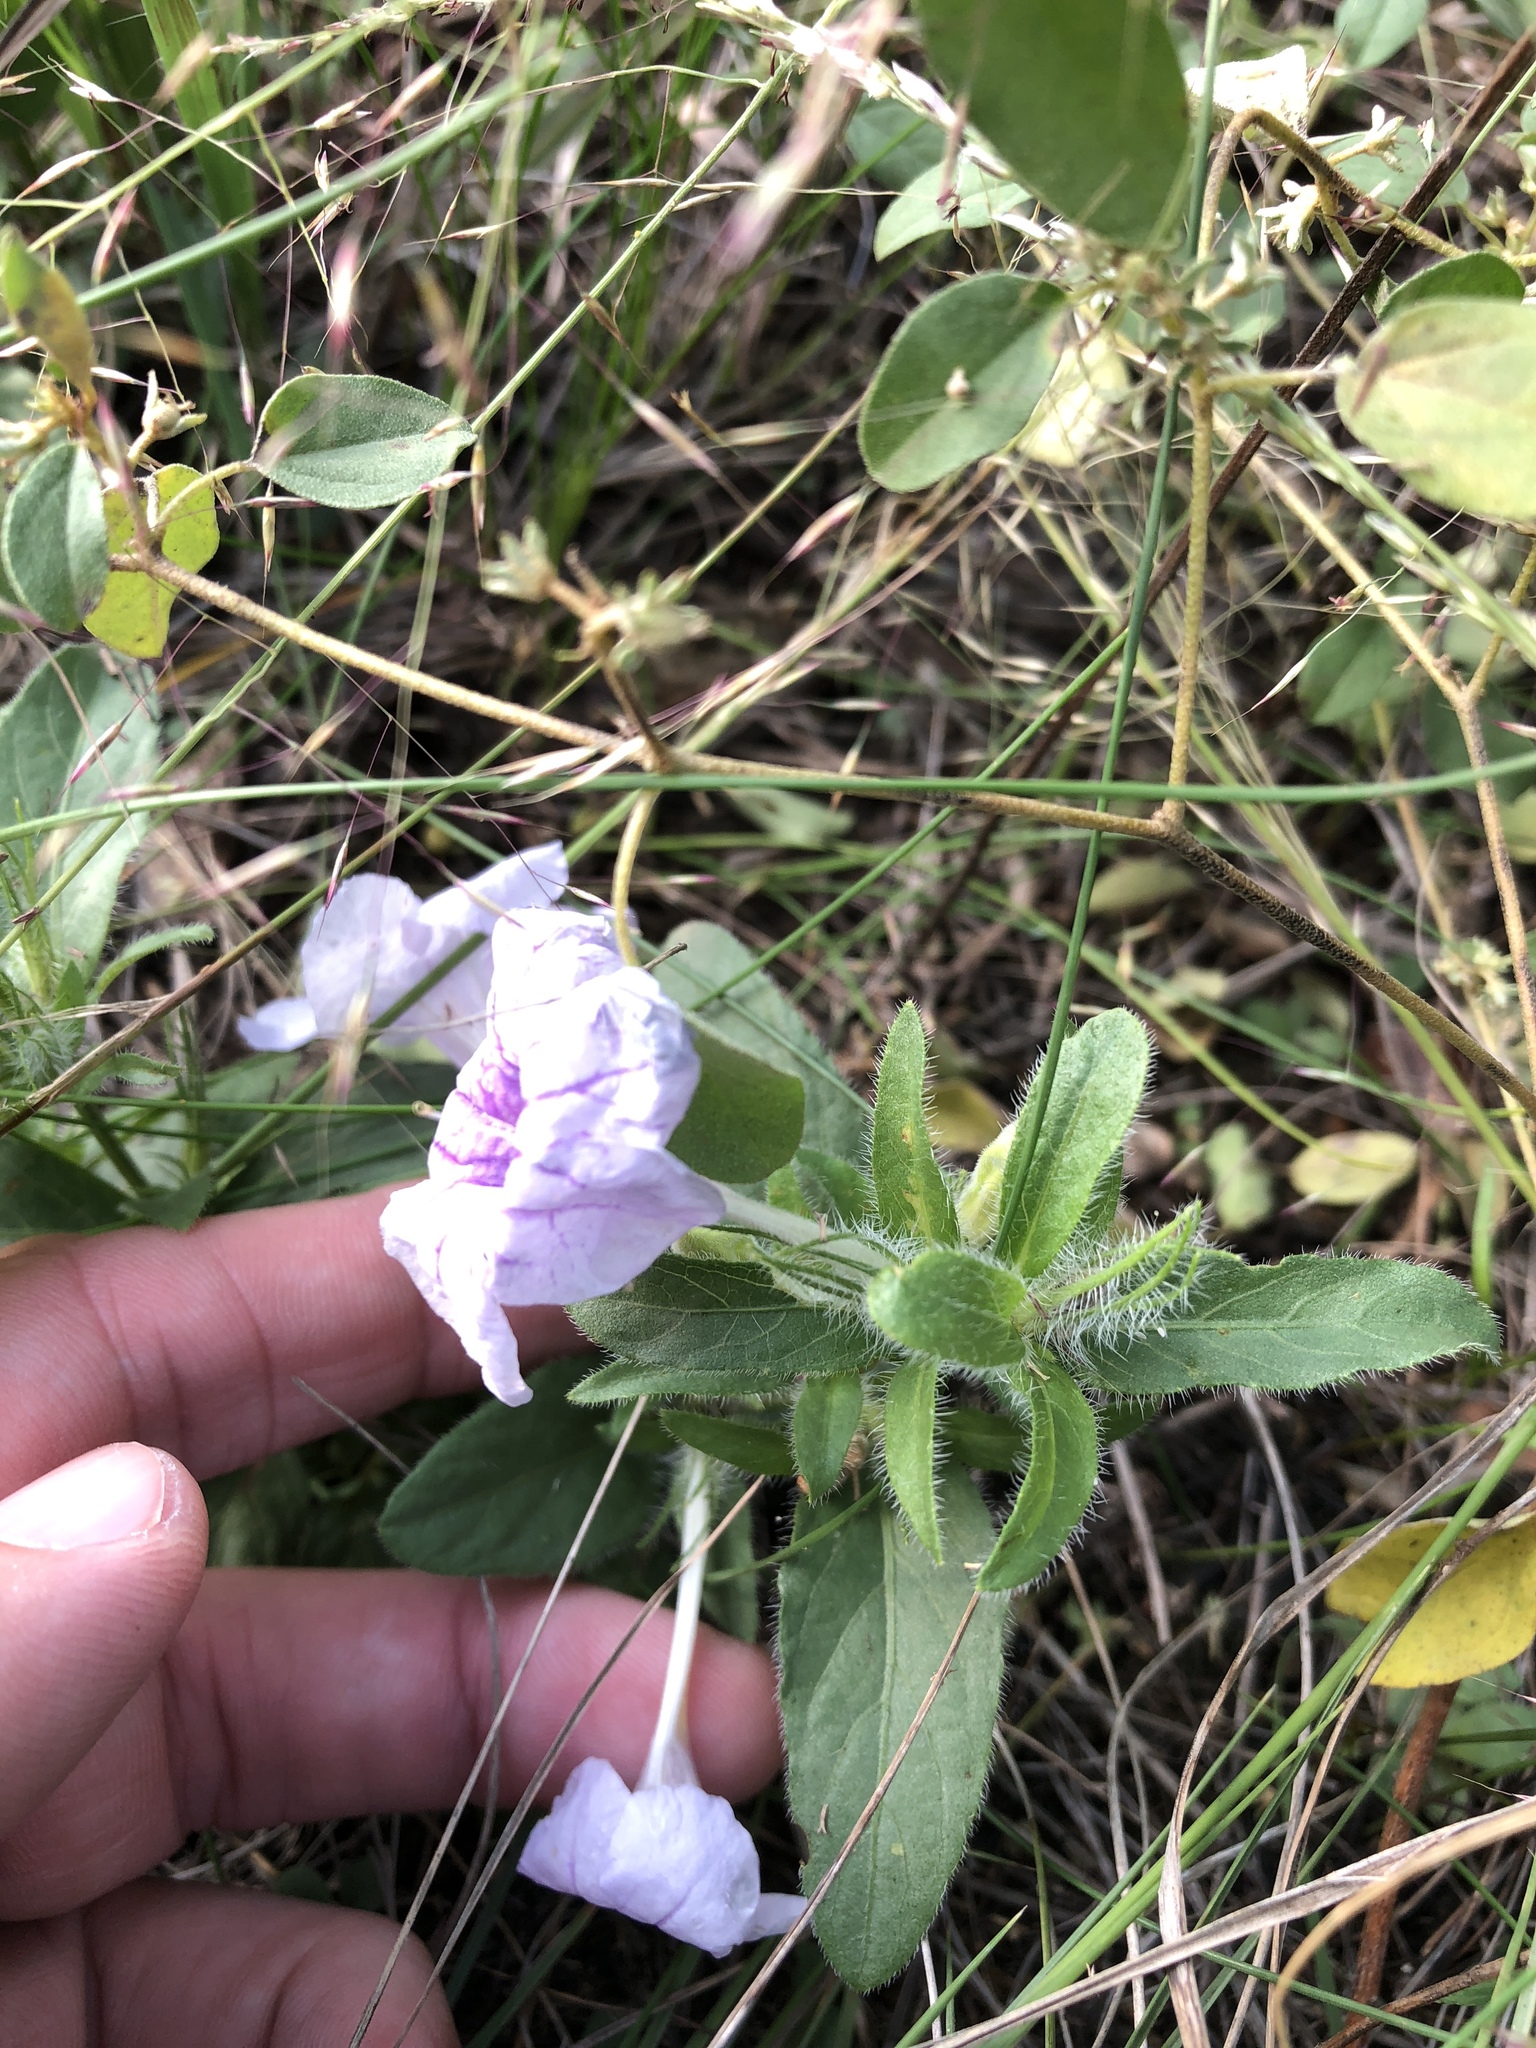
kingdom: Plantae
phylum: Tracheophyta
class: Magnoliopsida
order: Lamiales
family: Acanthaceae
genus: Ruellia
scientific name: Ruellia humilis
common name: Fringe-leaf ruellia
